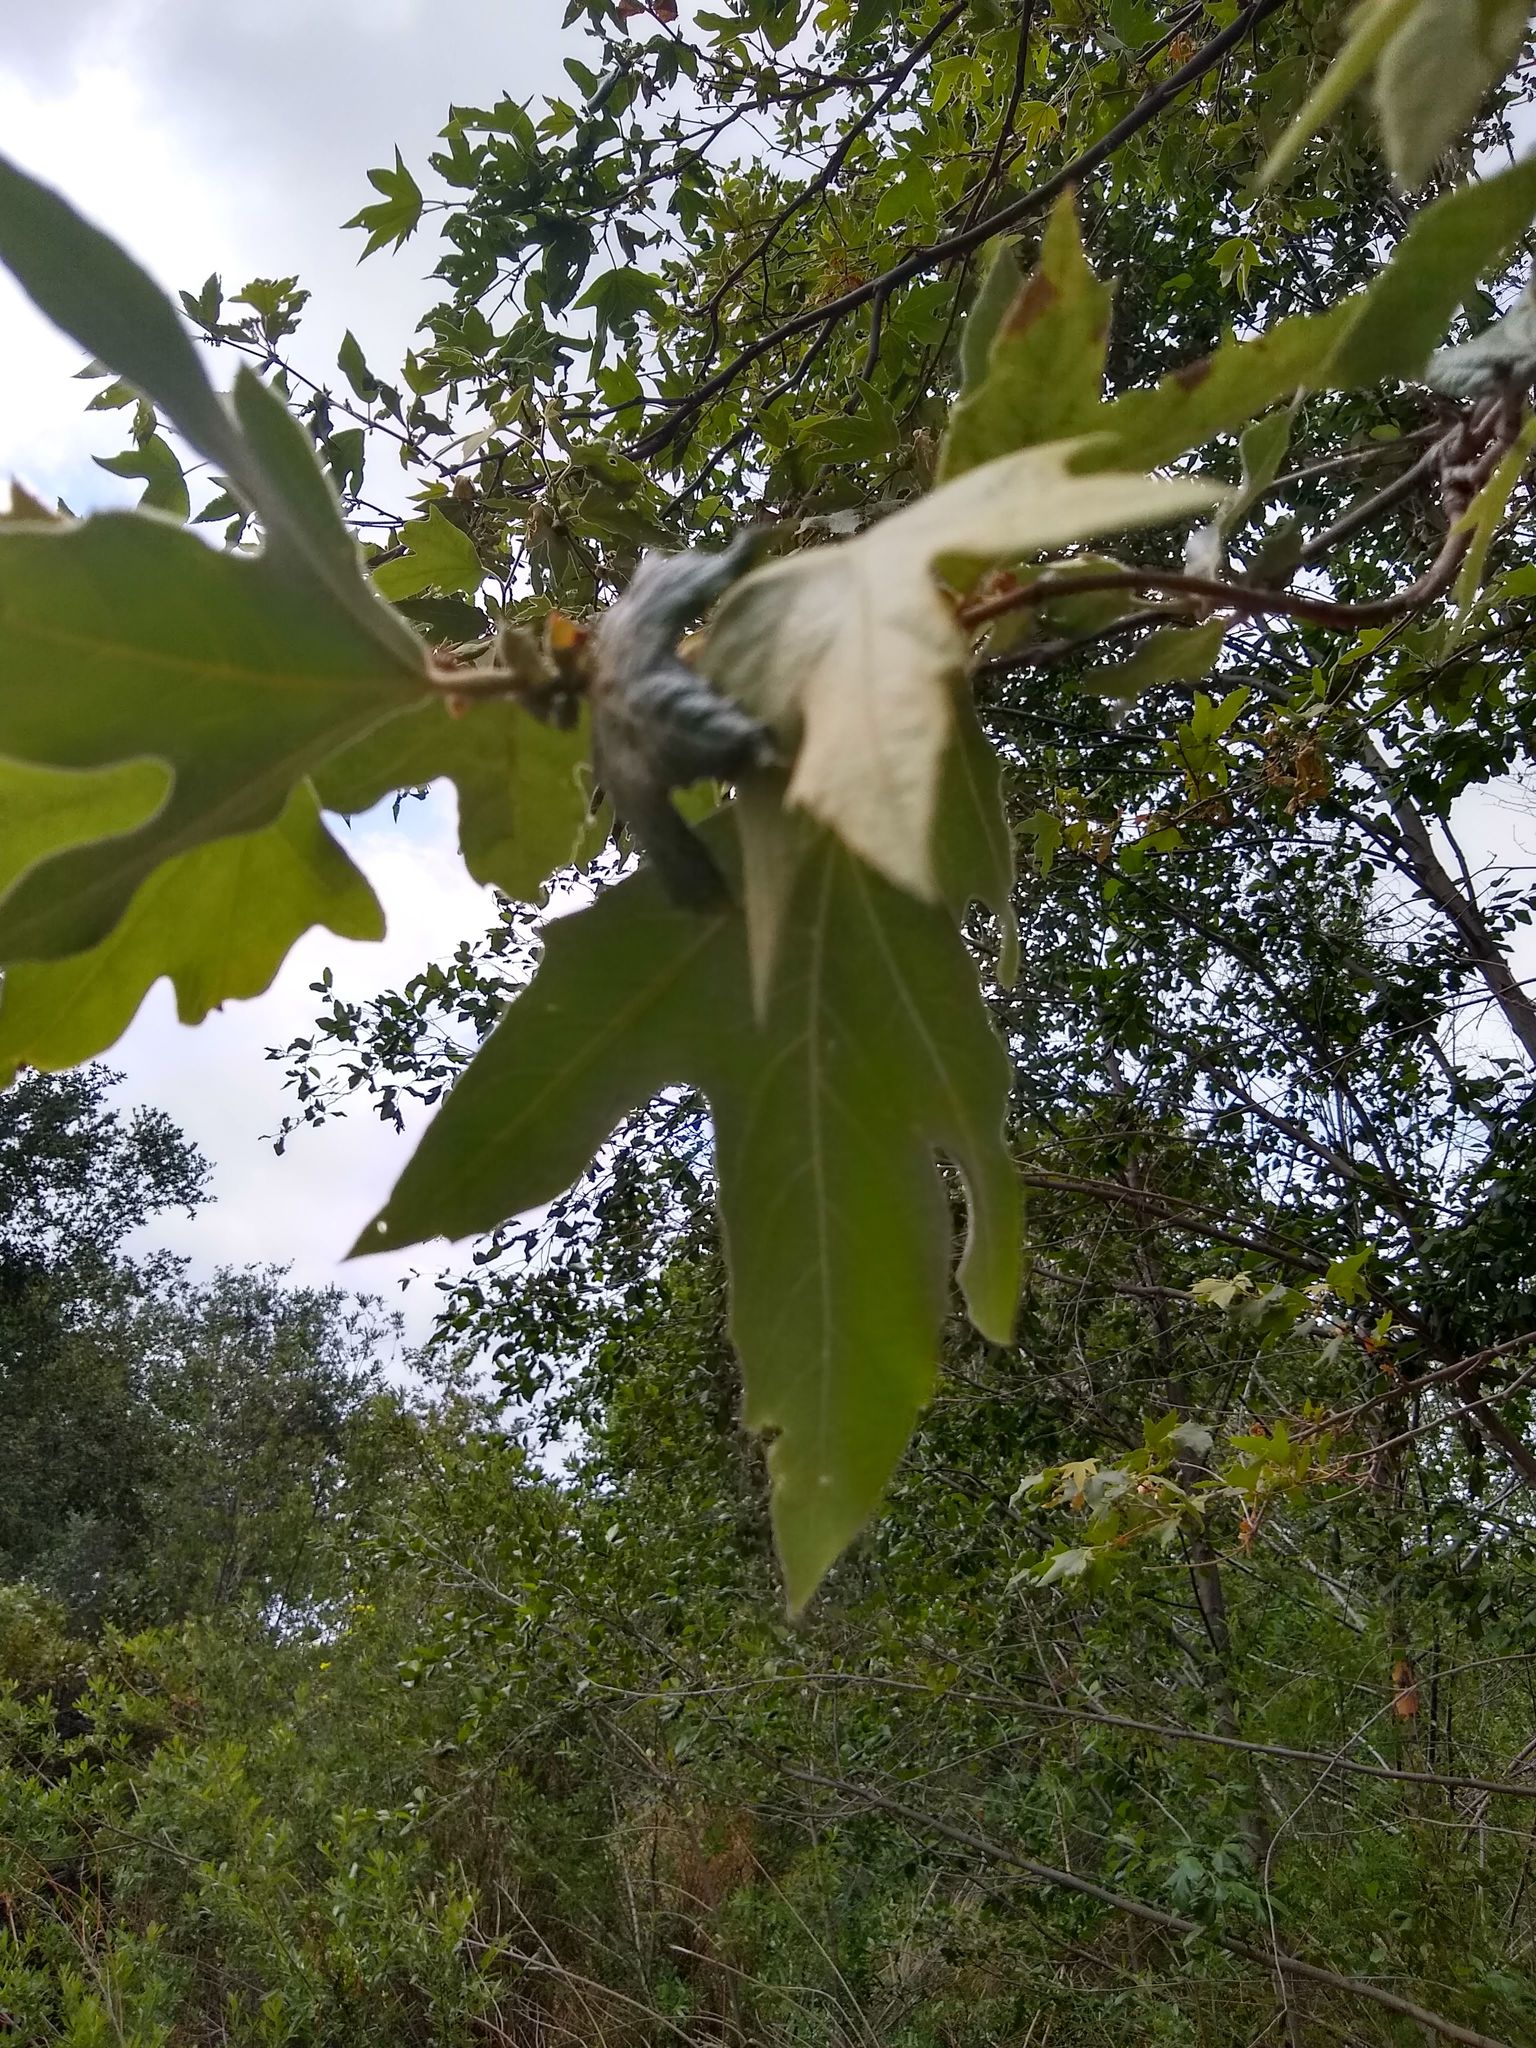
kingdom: Plantae
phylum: Tracheophyta
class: Magnoliopsida
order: Proteales
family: Platanaceae
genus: Platanus
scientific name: Platanus racemosa
